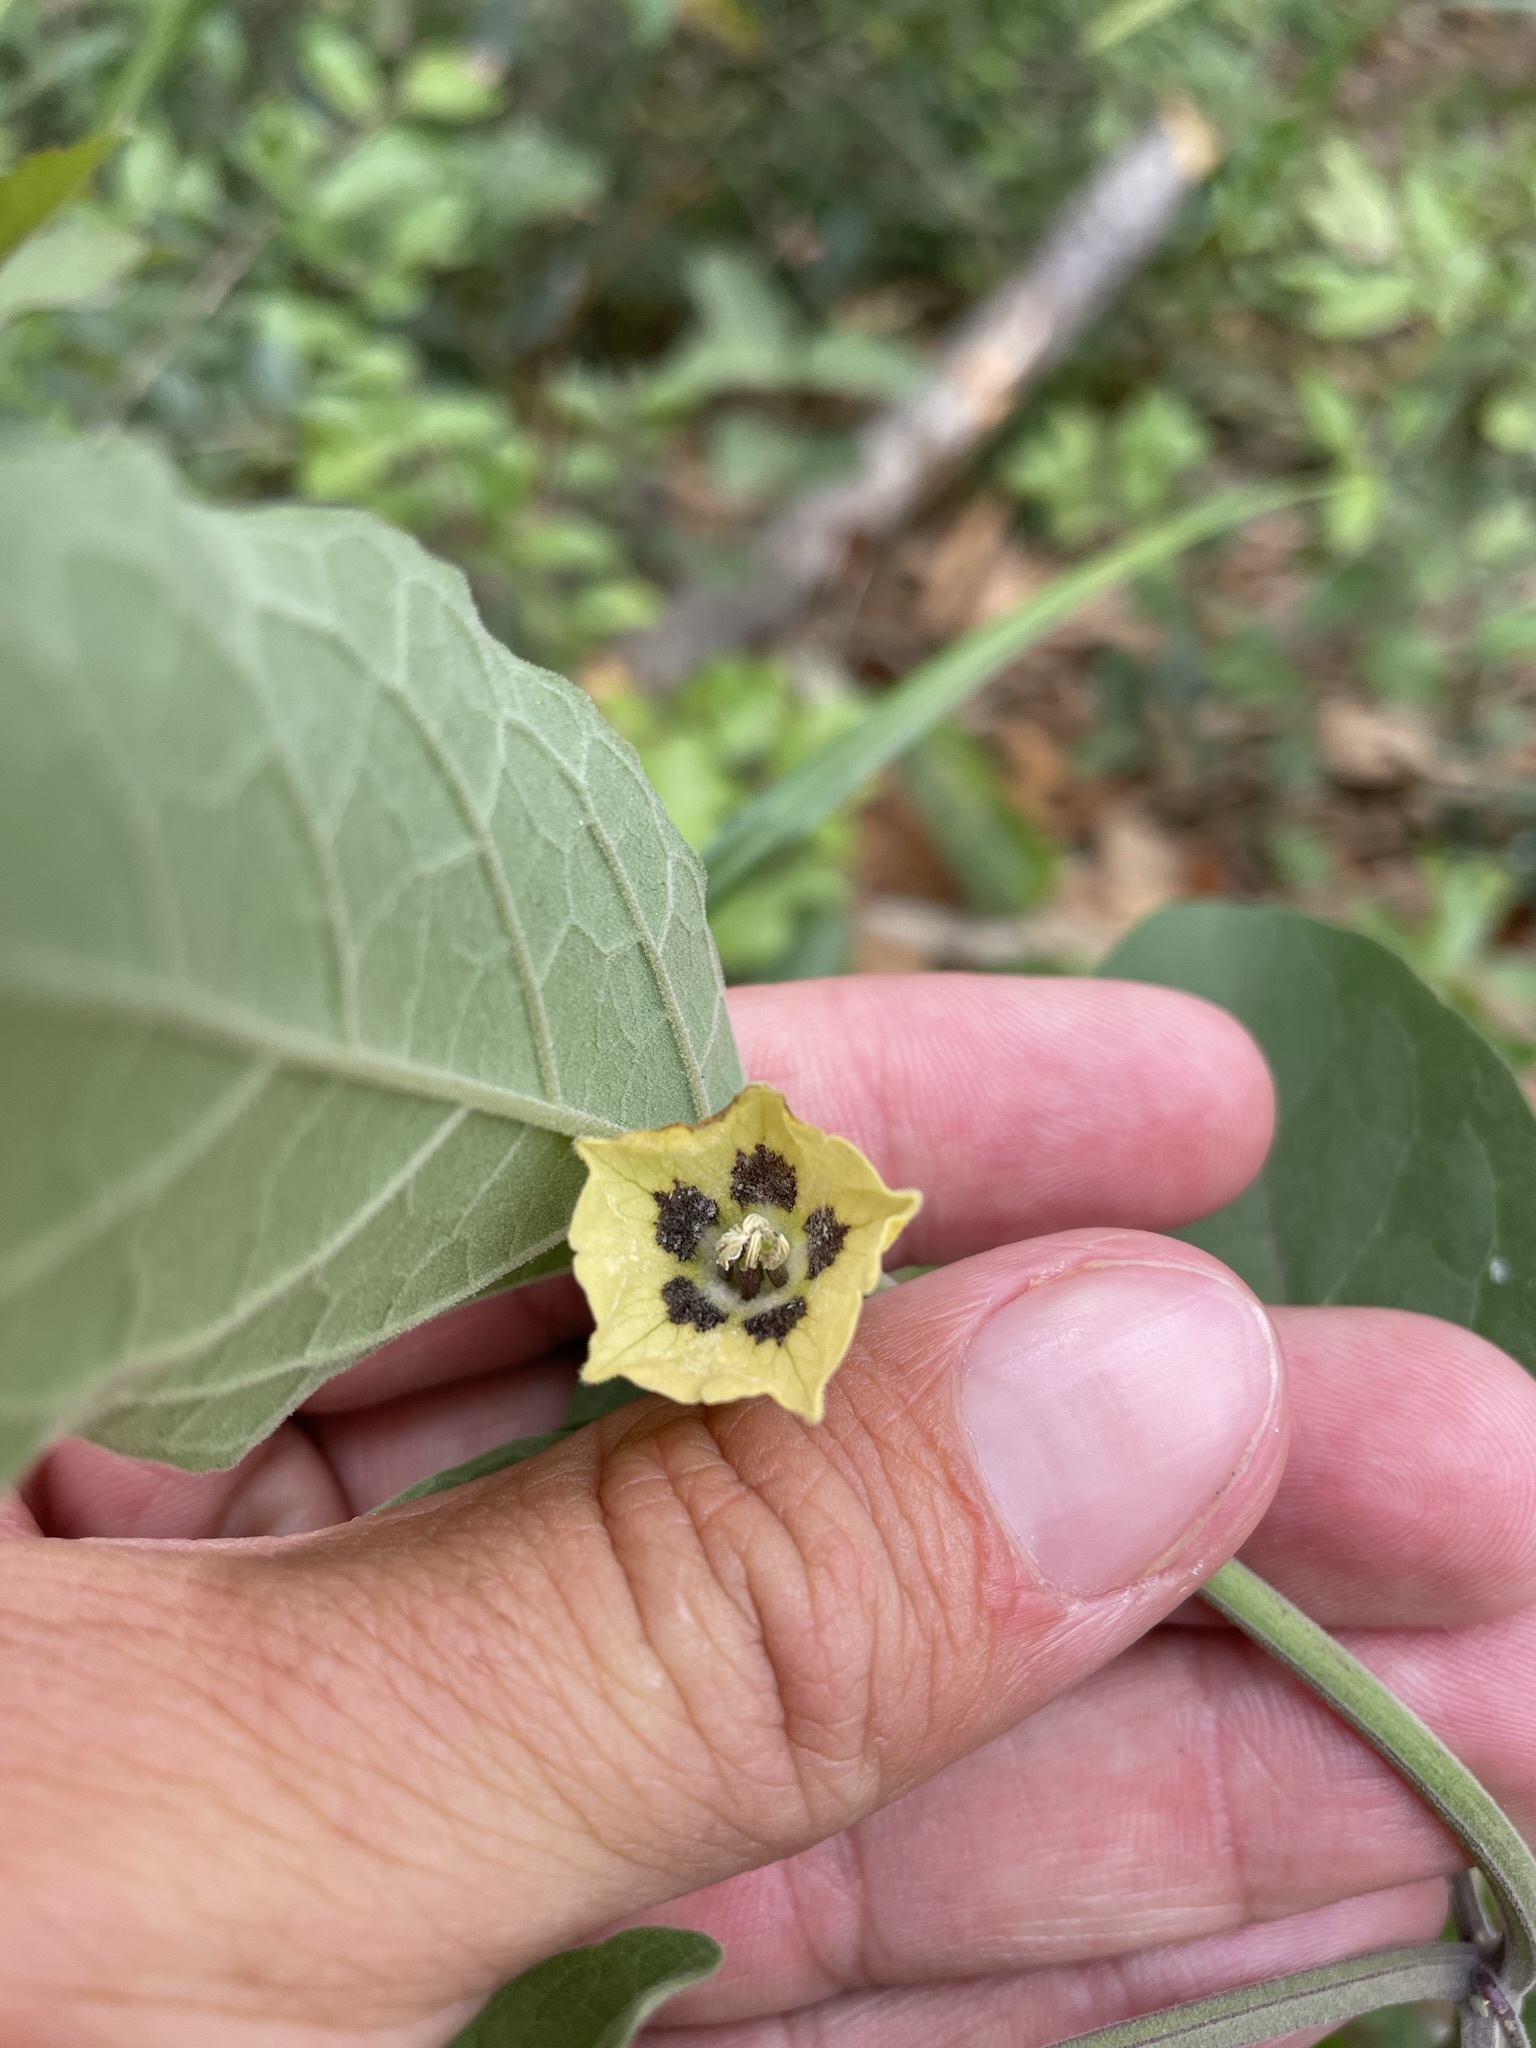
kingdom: Plantae
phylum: Tracheophyta
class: Magnoliopsida
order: Solanales
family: Solanaceae
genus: Physalis
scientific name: Physalis walteri
